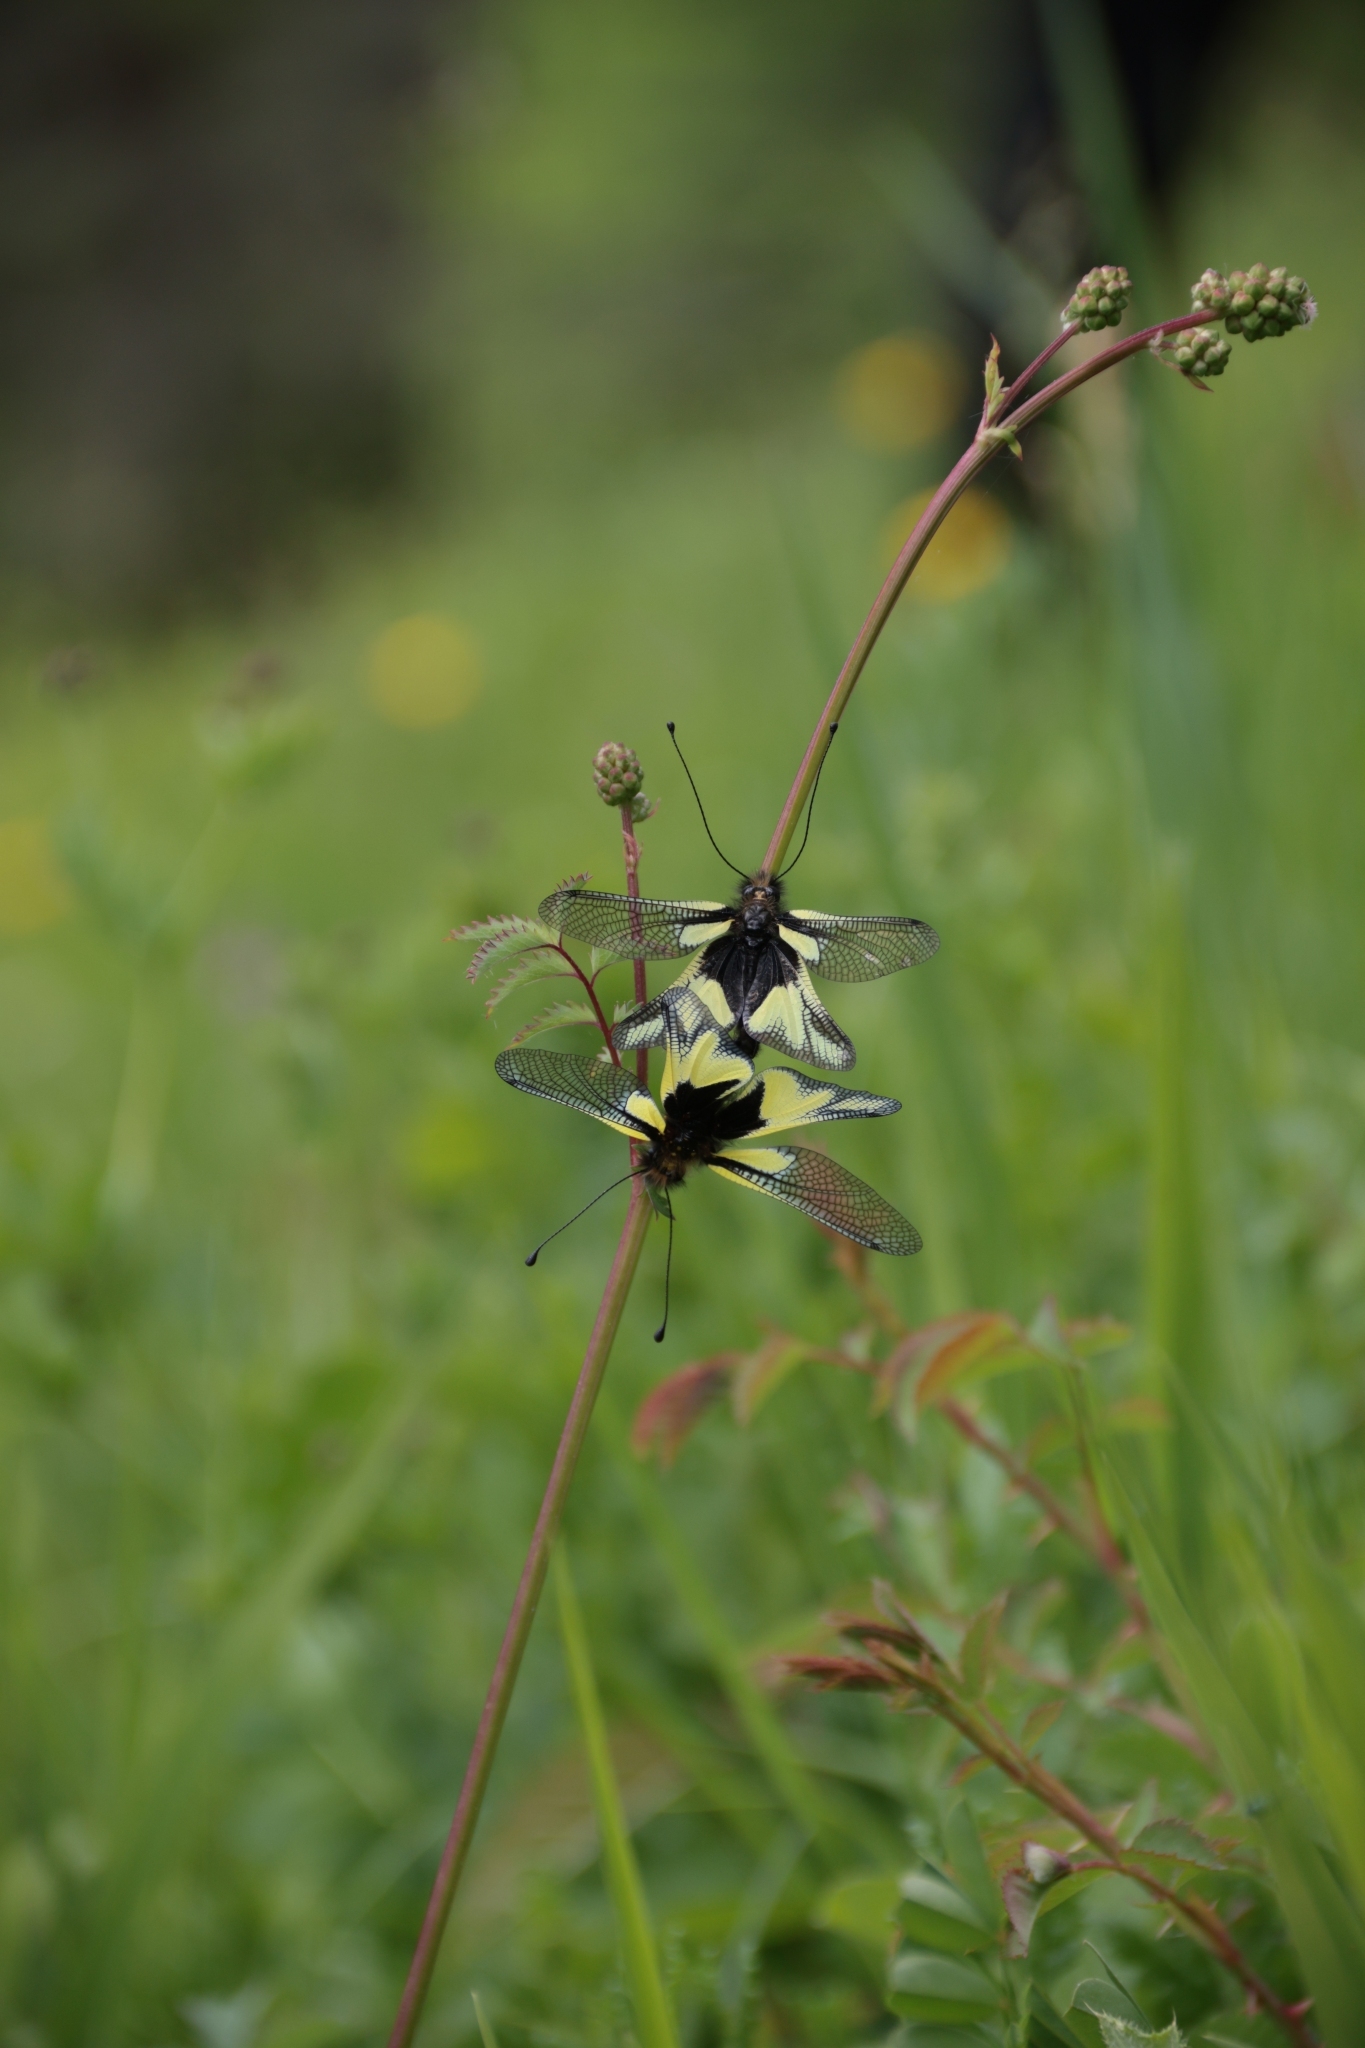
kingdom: Animalia
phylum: Arthropoda
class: Insecta
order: Neuroptera
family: Ascalaphidae
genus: Libelloides
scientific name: Libelloides coccajus
